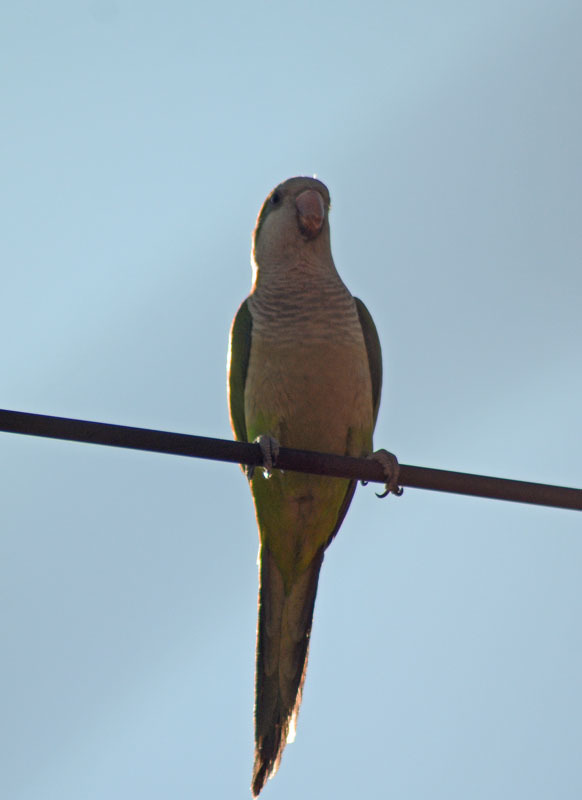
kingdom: Animalia
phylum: Chordata
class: Aves
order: Psittaciformes
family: Psittacidae
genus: Myiopsitta
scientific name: Myiopsitta monachus
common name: Monk parakeet
